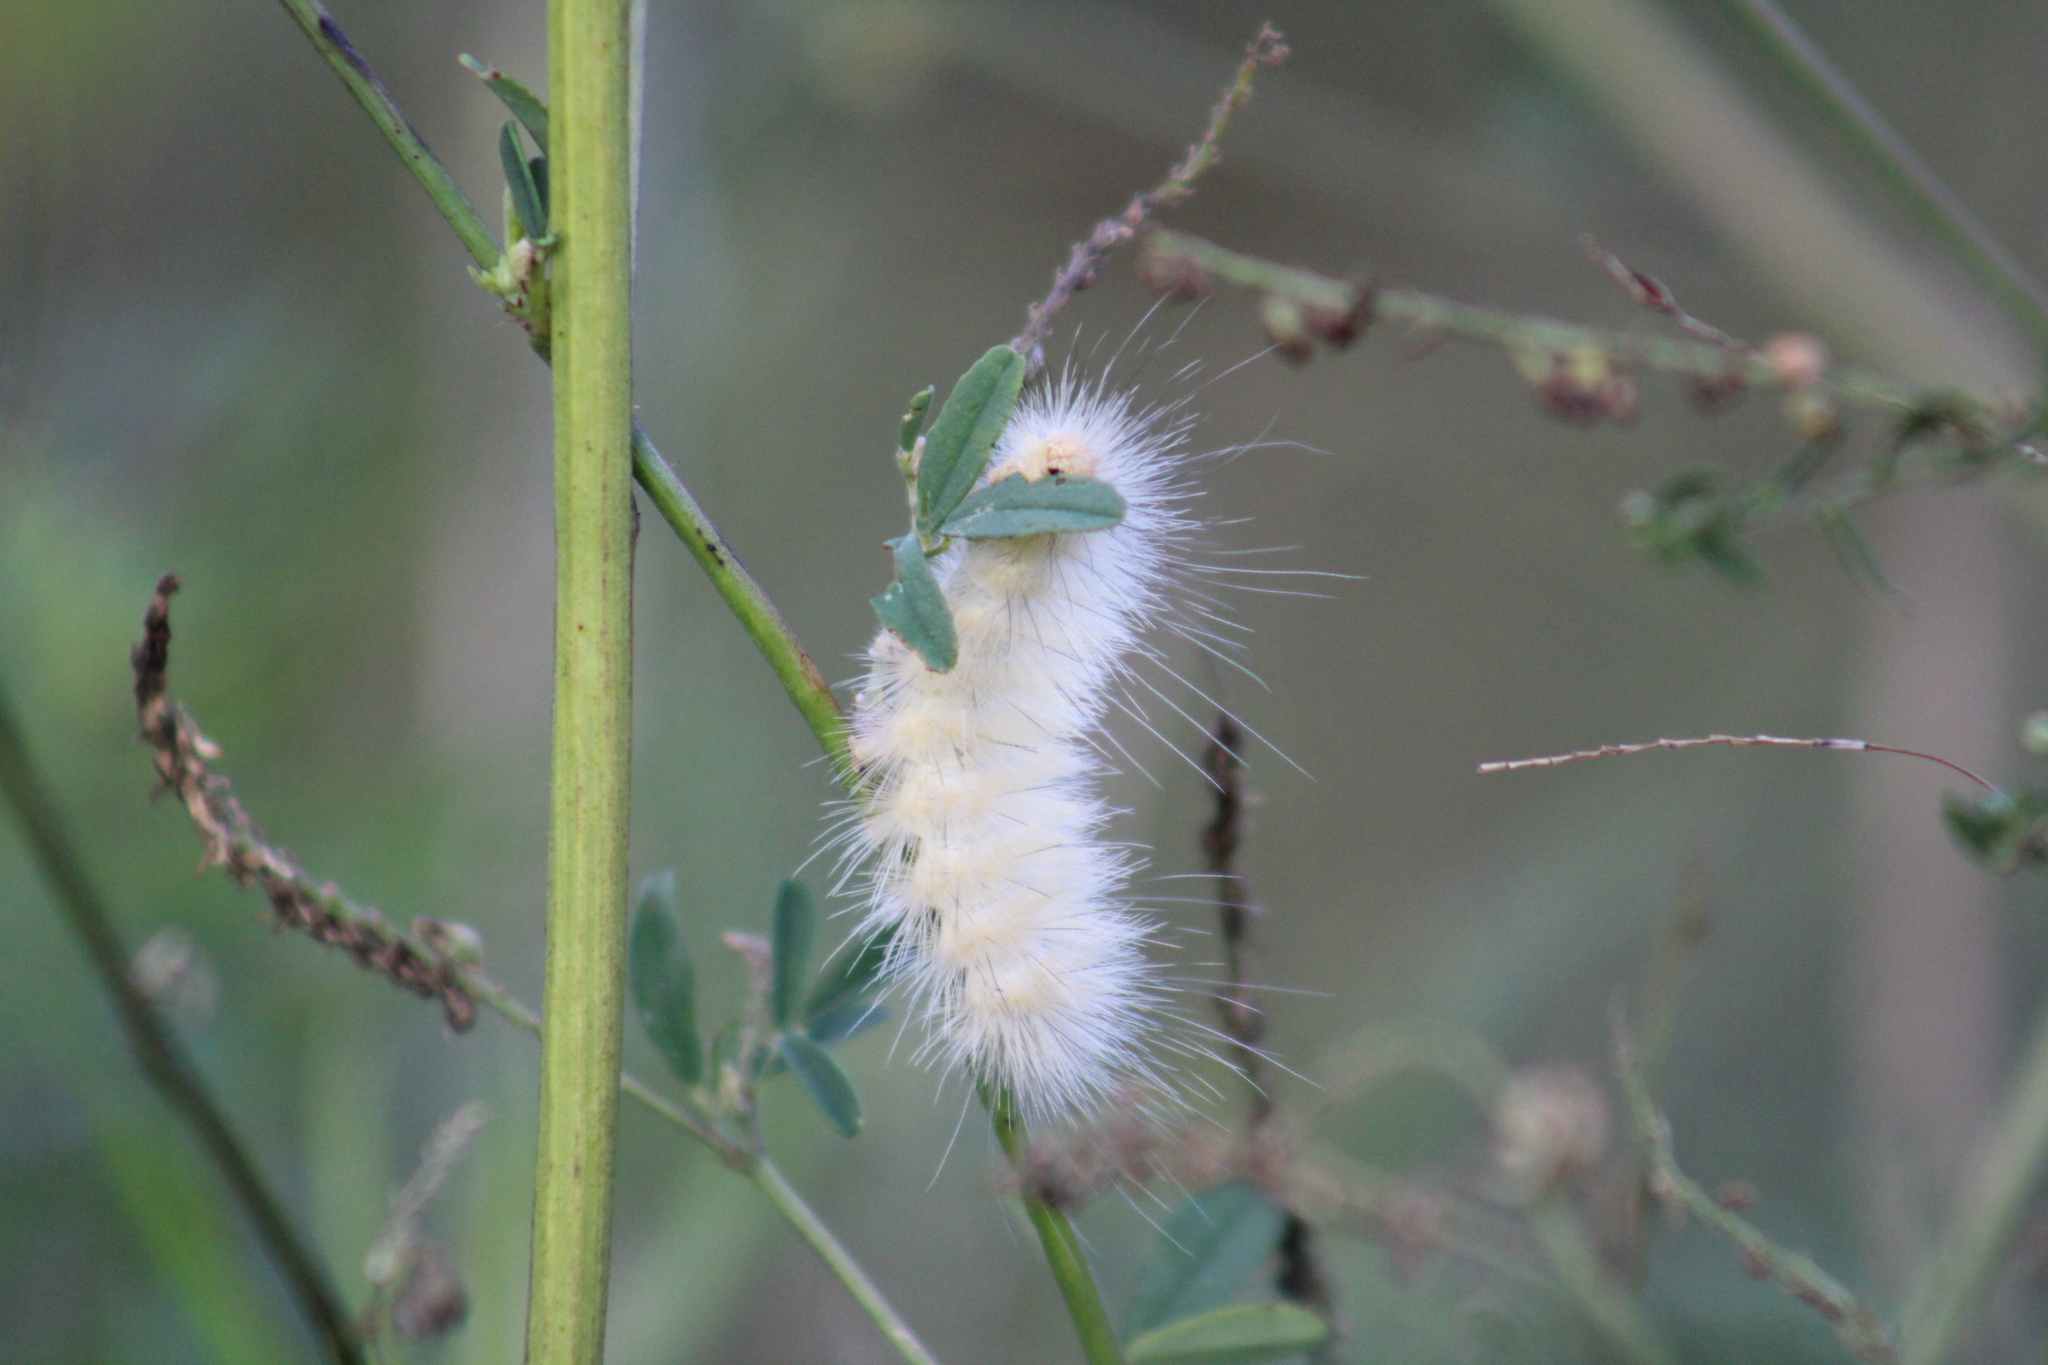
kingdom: Animalia
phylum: Arthropoda
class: Insecta
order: Lepidoptera
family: Erebidae
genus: Spilosoma
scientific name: Spilosoma virginica
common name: Virginia tiger moth
